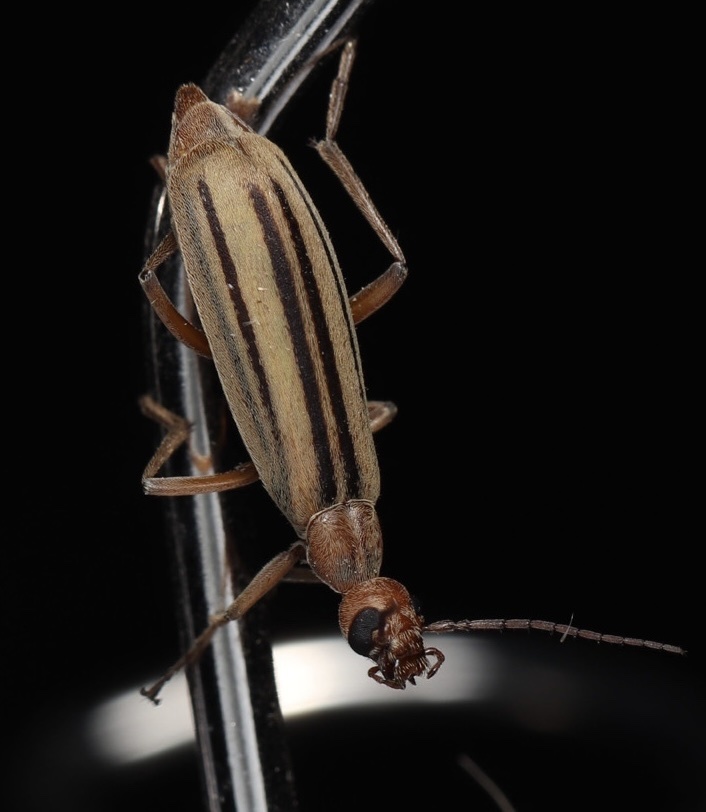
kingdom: Animalia
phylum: Arthropoda
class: Insecta
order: Coleoptera
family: Meloidae
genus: Epicauta
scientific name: Epicauta abadona
